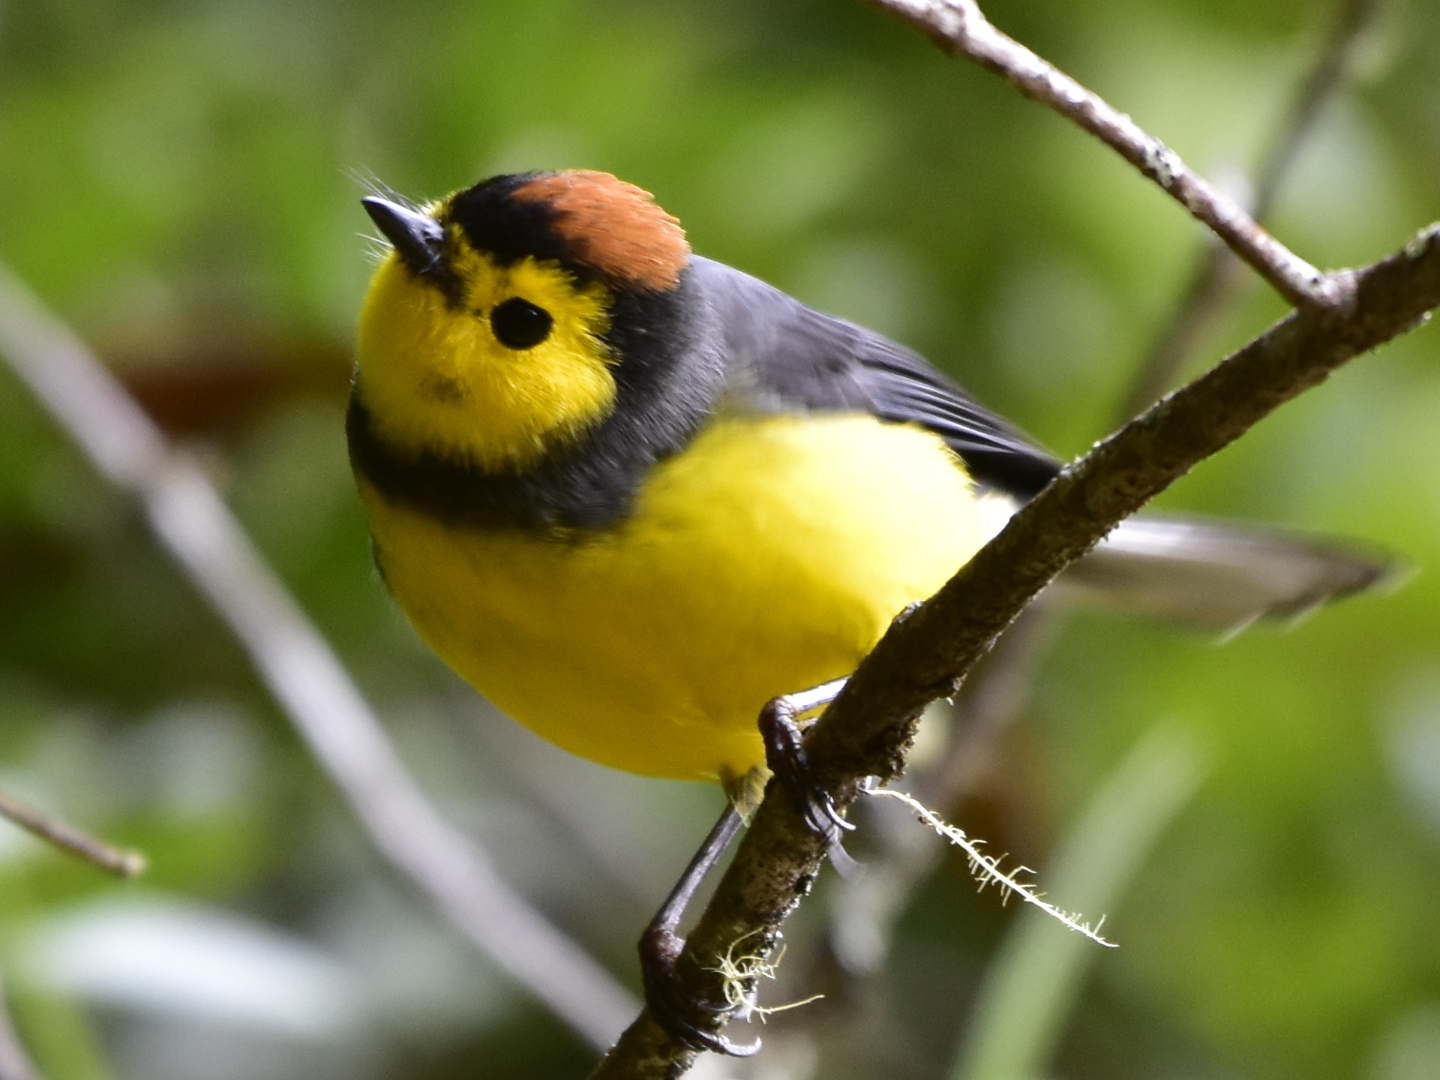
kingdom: Animalia
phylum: Chordata
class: Aves
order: Passeriformes
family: Parulidae
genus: Myioborus
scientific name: Myioborus torquatus
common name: Collared whitestart
